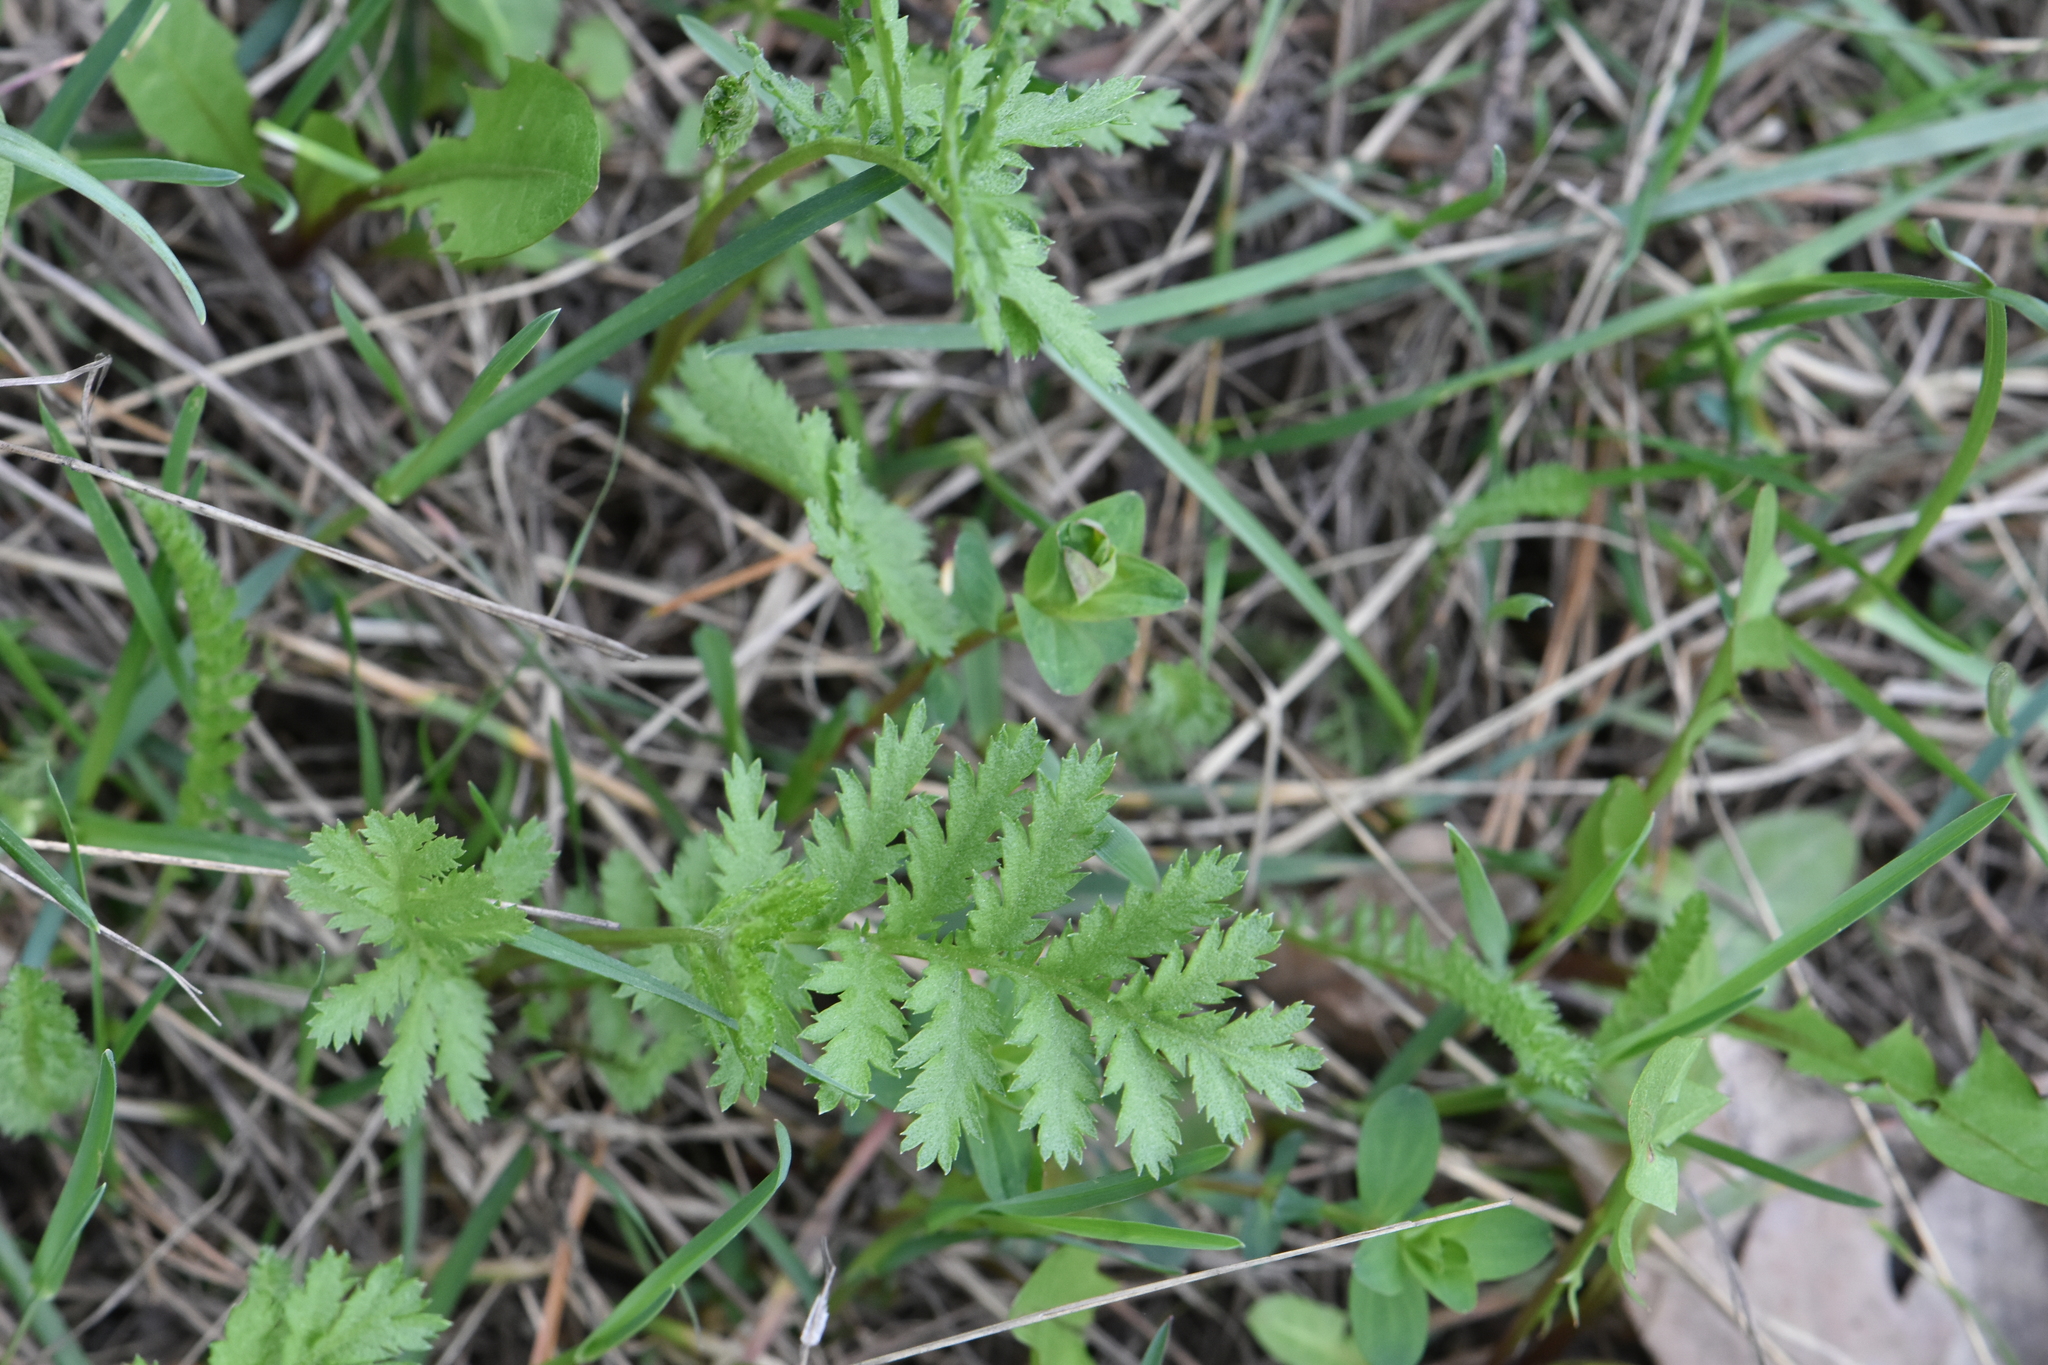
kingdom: Plantae
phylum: Tracheophyta
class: Magnoliopsida
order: Asterales
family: Asteraceae
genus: Tanacetum
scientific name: Tanacetum vulgare
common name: Common tansy
